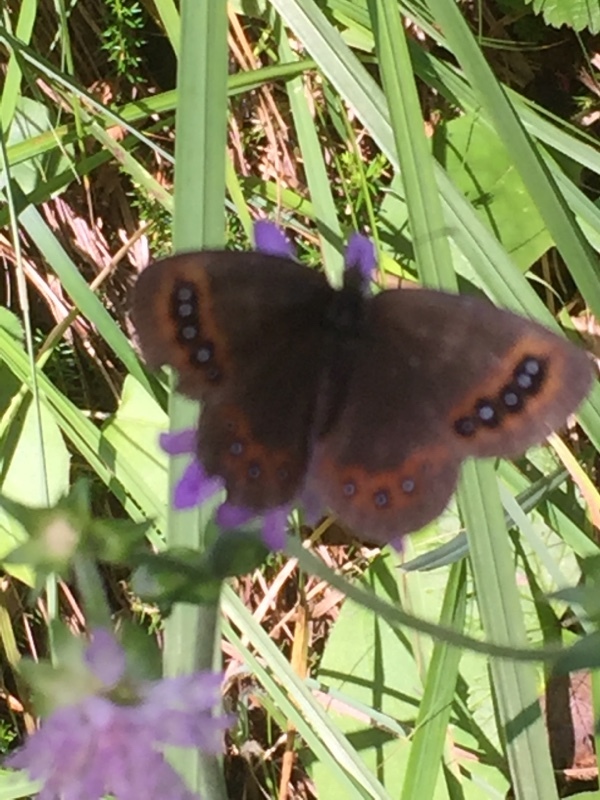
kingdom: Animalia
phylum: Arthropoda
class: Insecta
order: Lepidoptera
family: Nymphalidae
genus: Erebia
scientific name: Erebia aethiops
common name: Scotch argus
